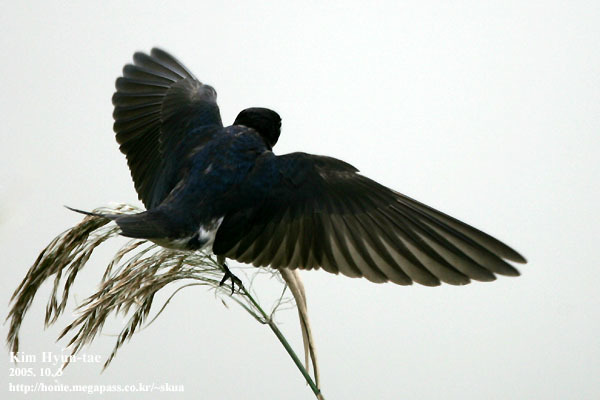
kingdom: Animalia
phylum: Chordata
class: Aves
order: Passeriformes
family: Hirundinidae
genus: Hirundo
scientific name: Hirundo rustica
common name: Barn swallow
